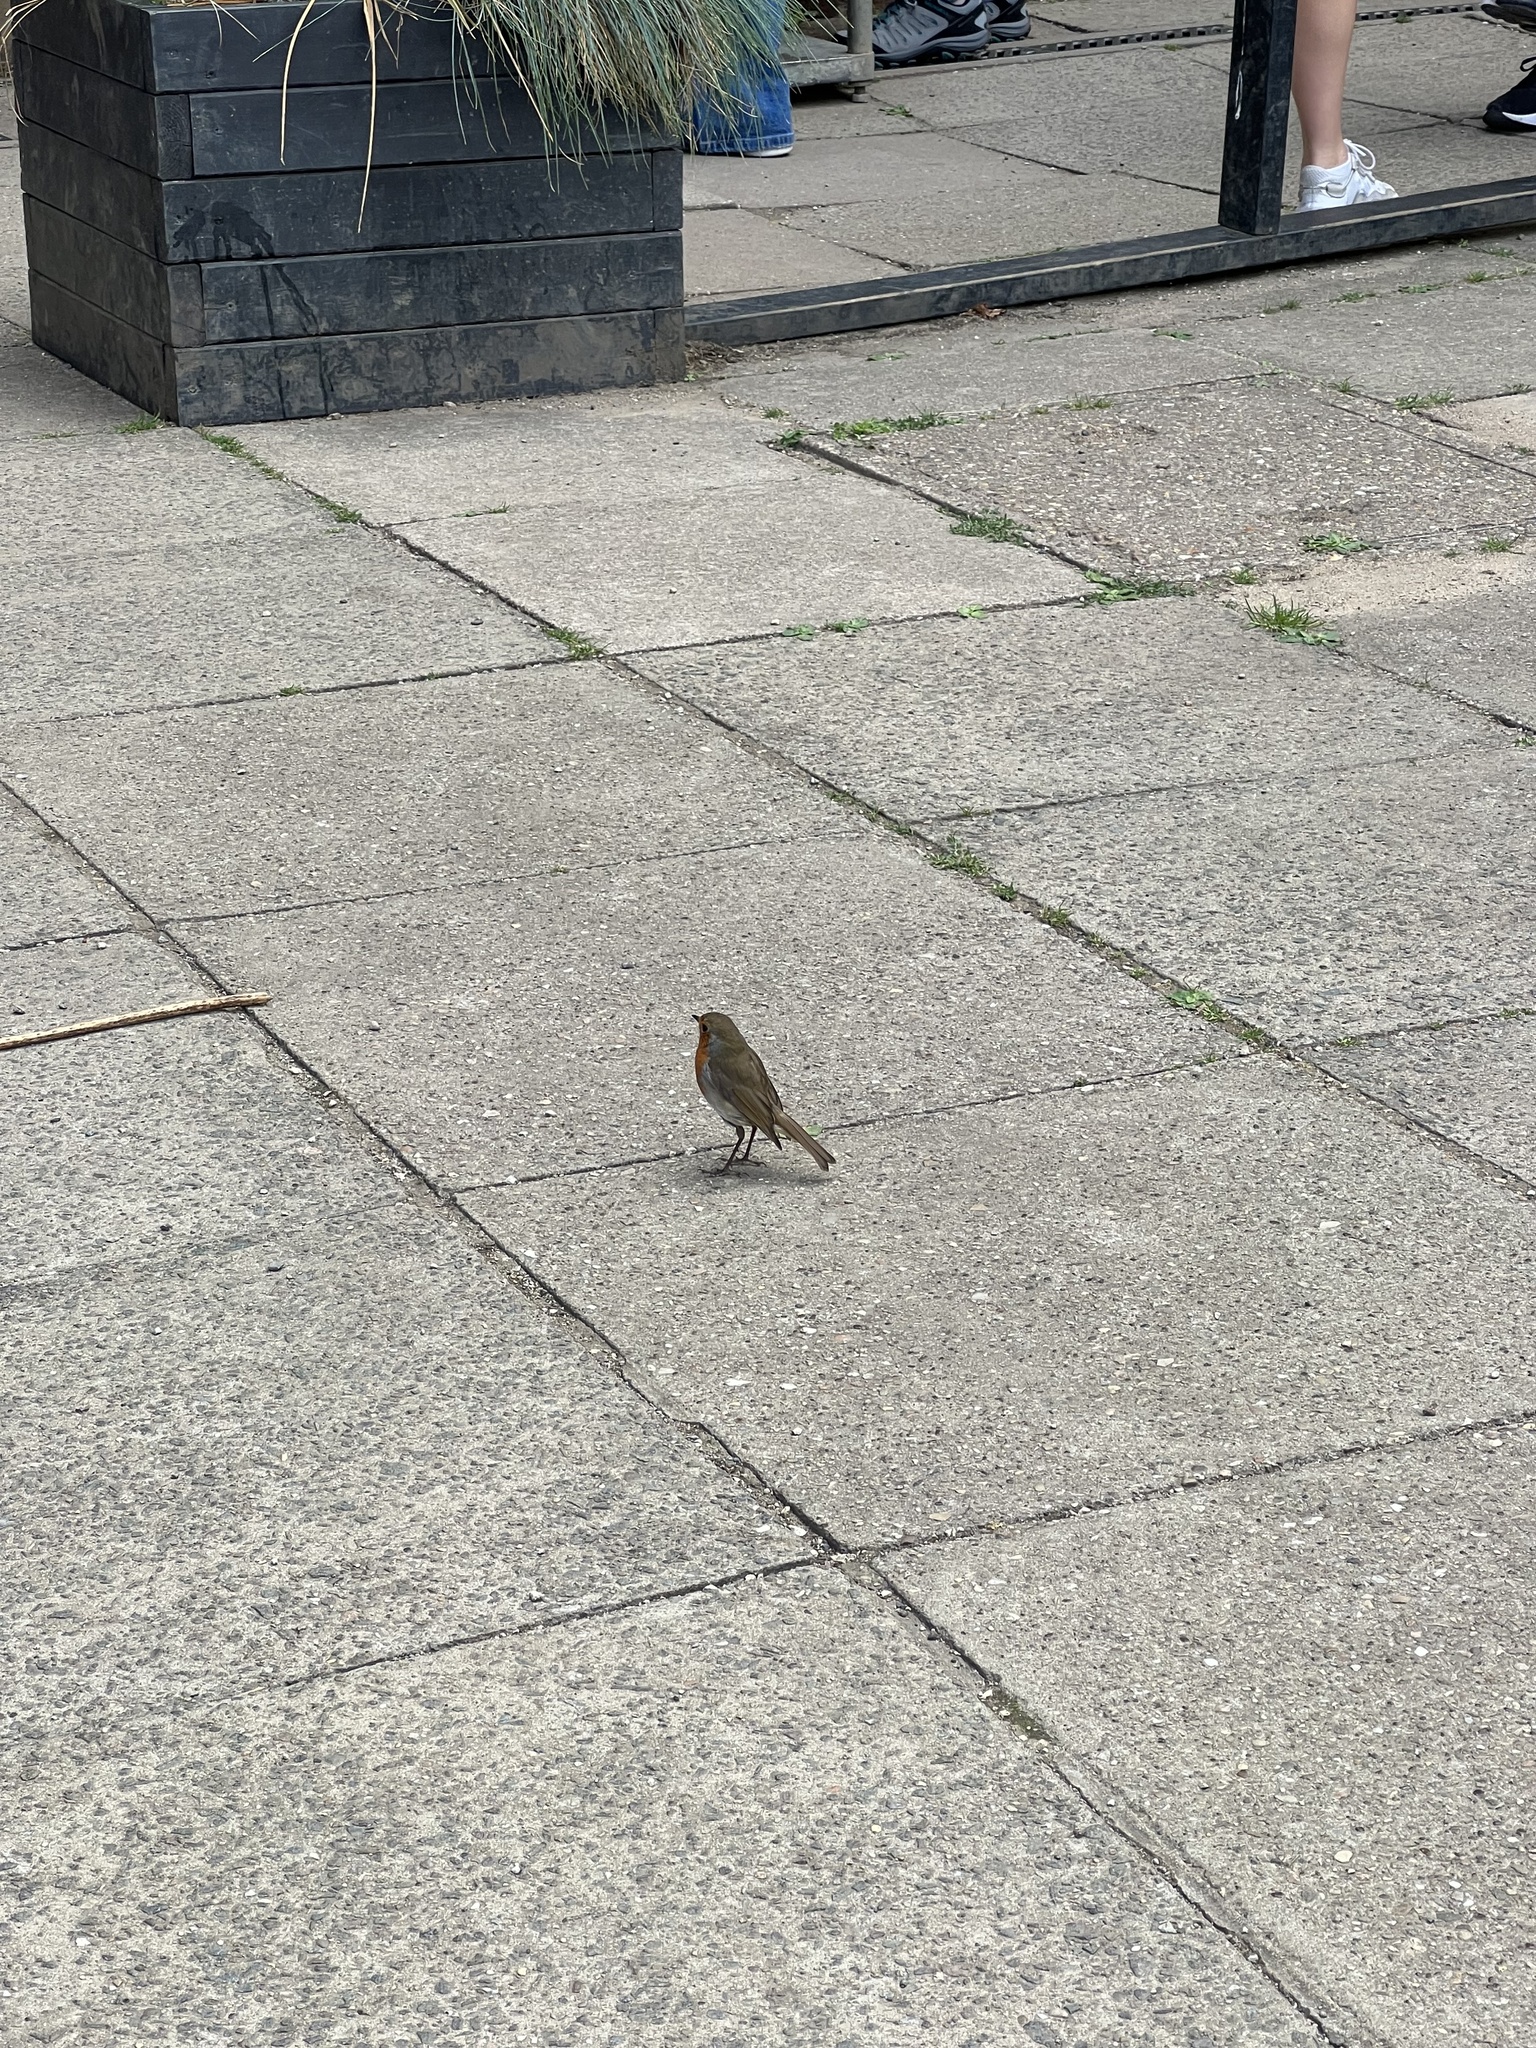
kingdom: Animalia
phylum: Chordata
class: Aves
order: Passeriformes
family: Muscicapidae
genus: Erithacus
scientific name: Erithacus rubecula
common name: European robin
